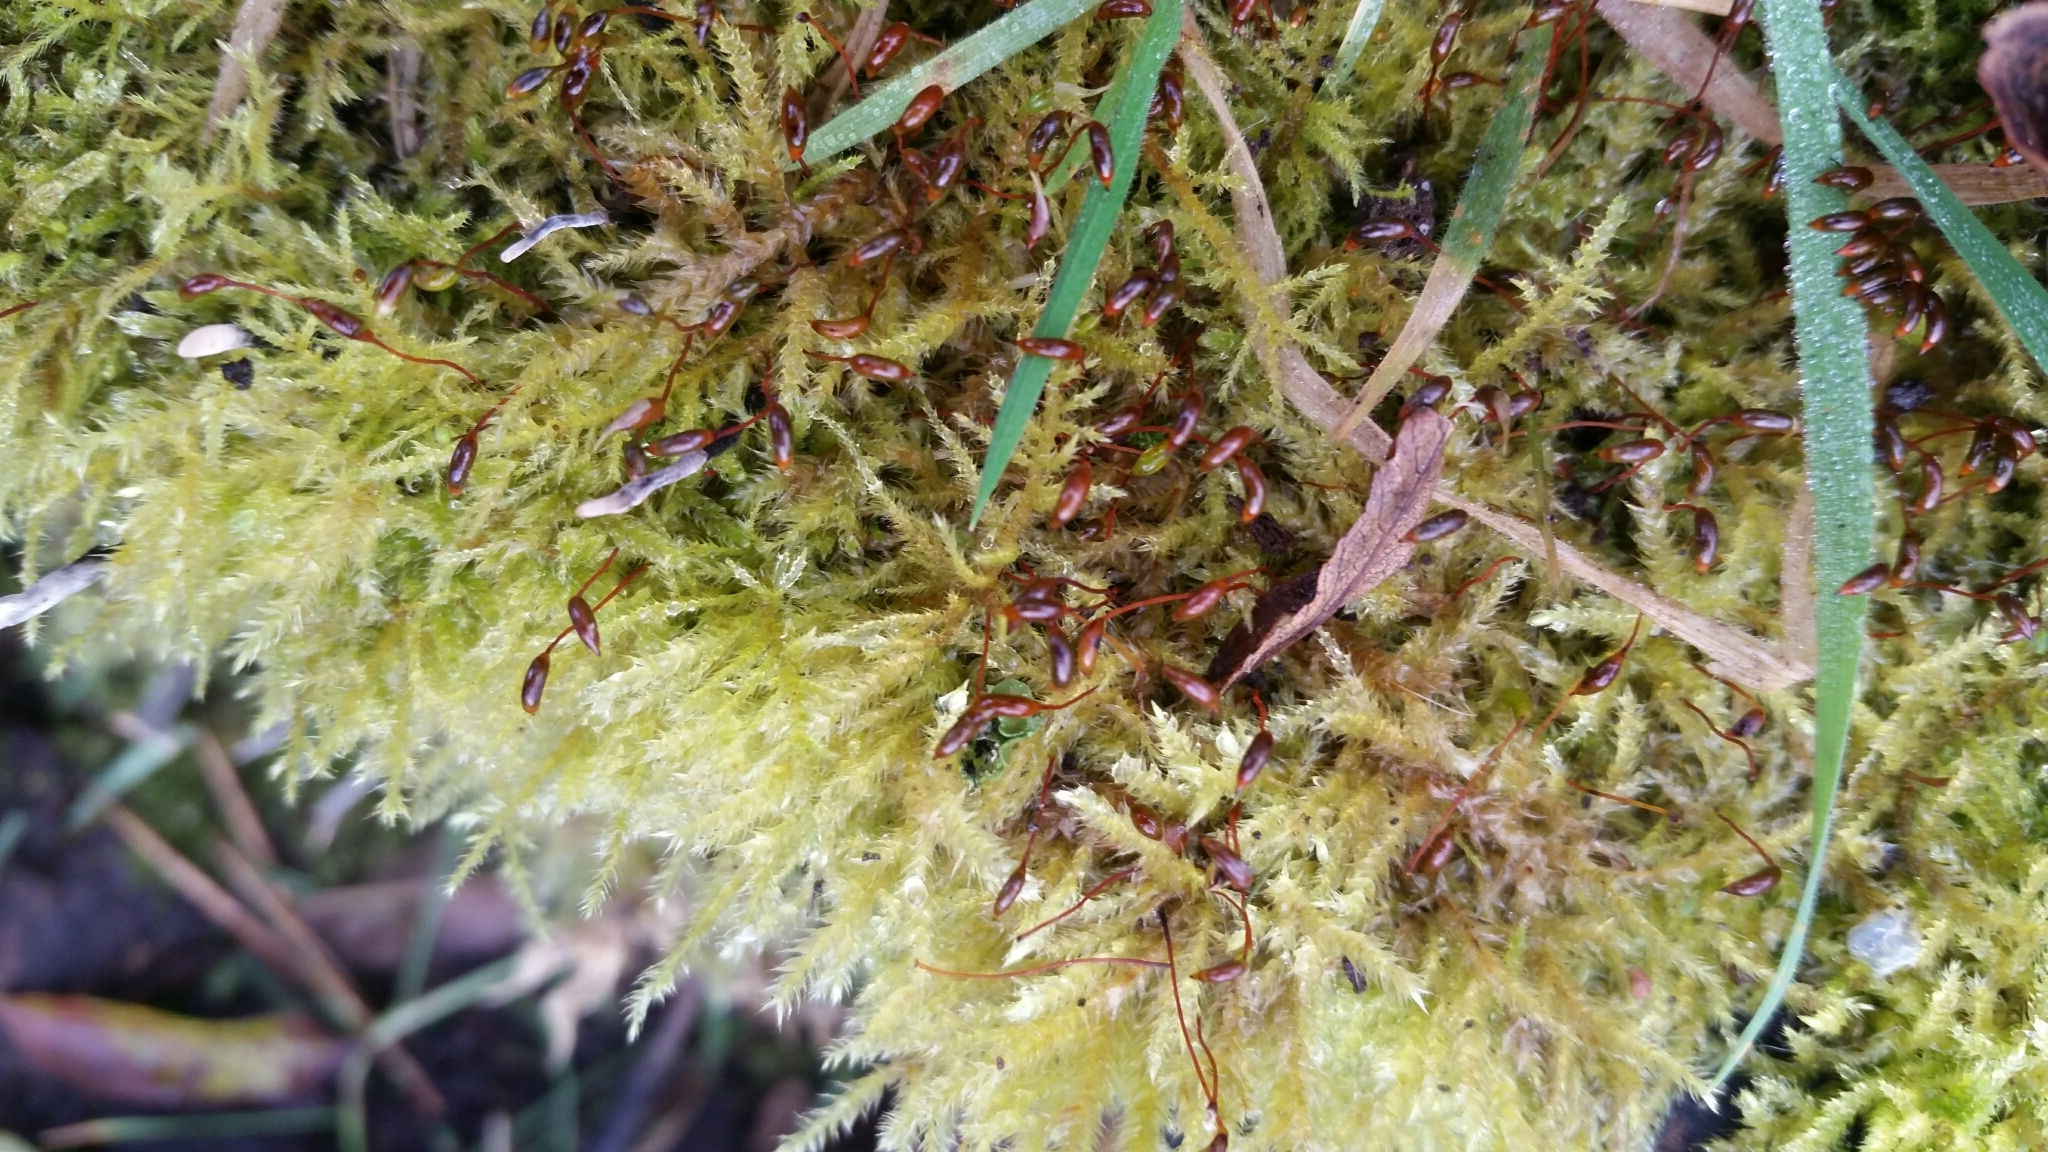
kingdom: Plantae
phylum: Bryophyta
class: Bryopsida
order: Hypnales
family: Brachytheciaceae
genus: Kindbergia
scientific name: Kindbergia praelonga
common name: Slender beaked moss
